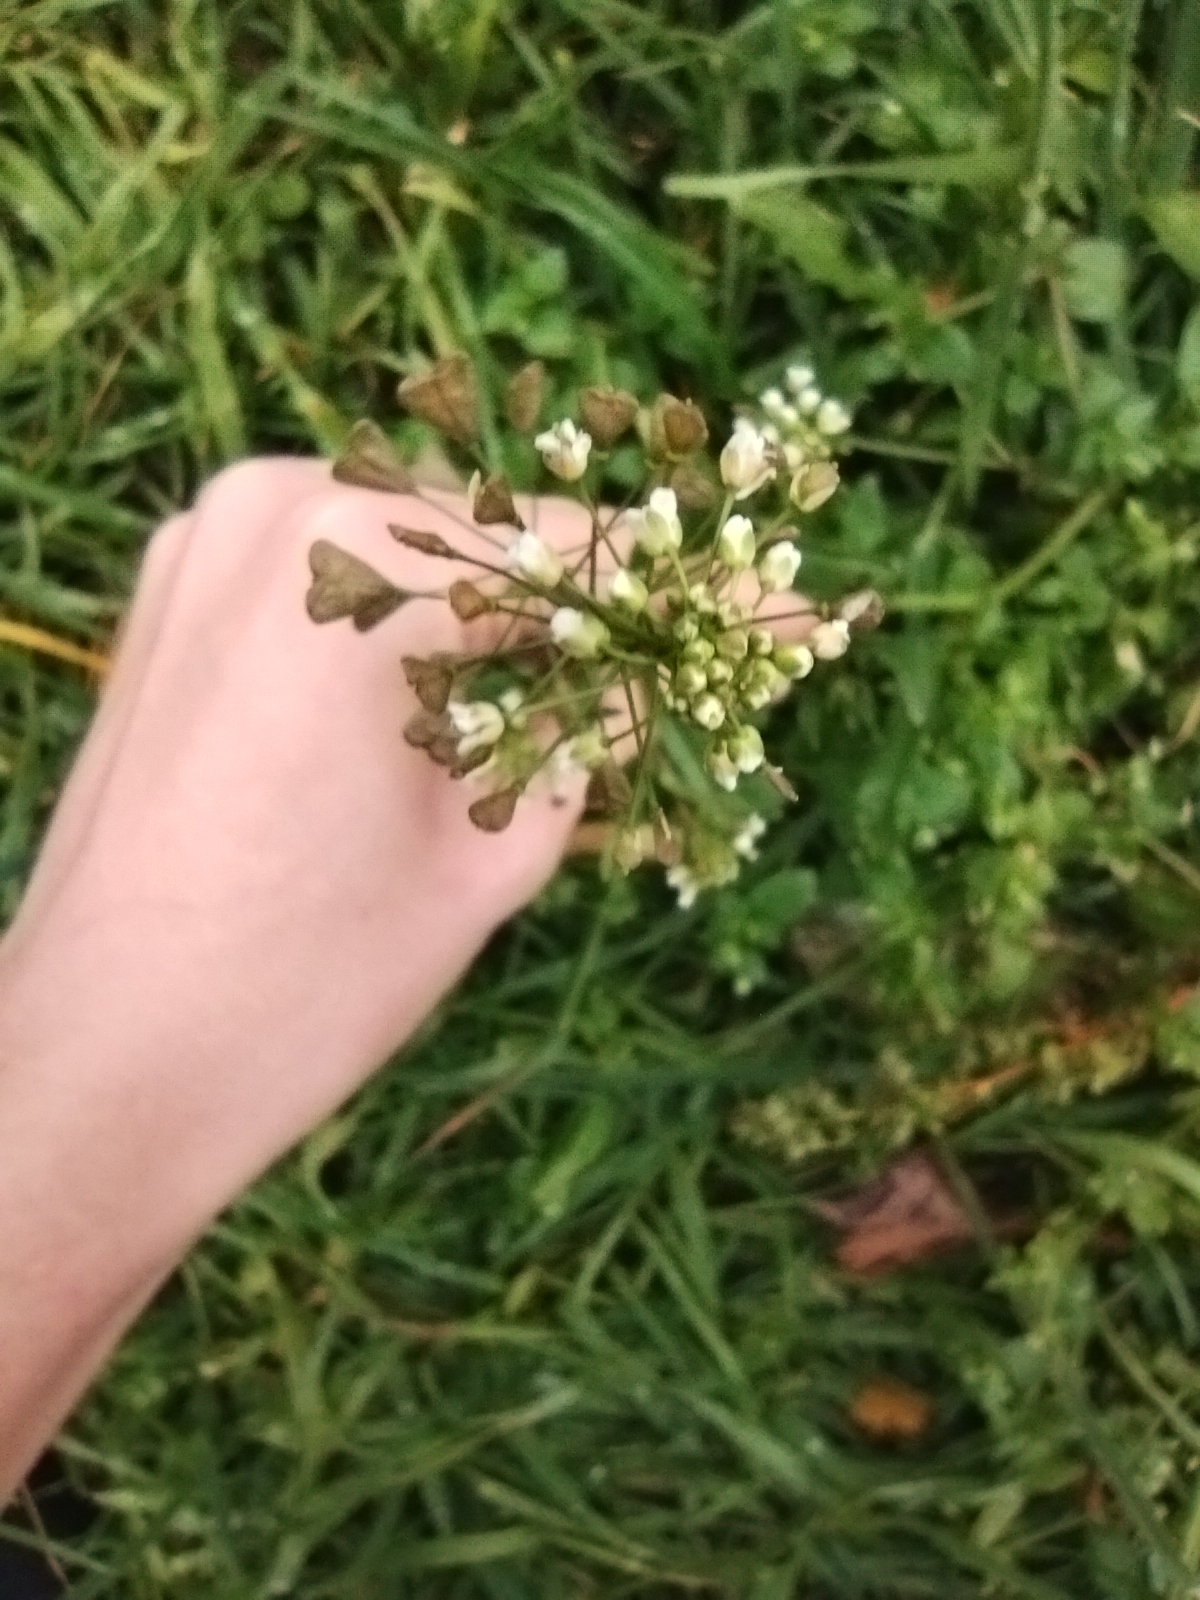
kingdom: Plantae
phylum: Tracheophyta
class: Magnoliopsida
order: Brassicales
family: Brassicaceae
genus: Capsella
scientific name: Capsella bursa-pastoris
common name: Shepherd's purse
